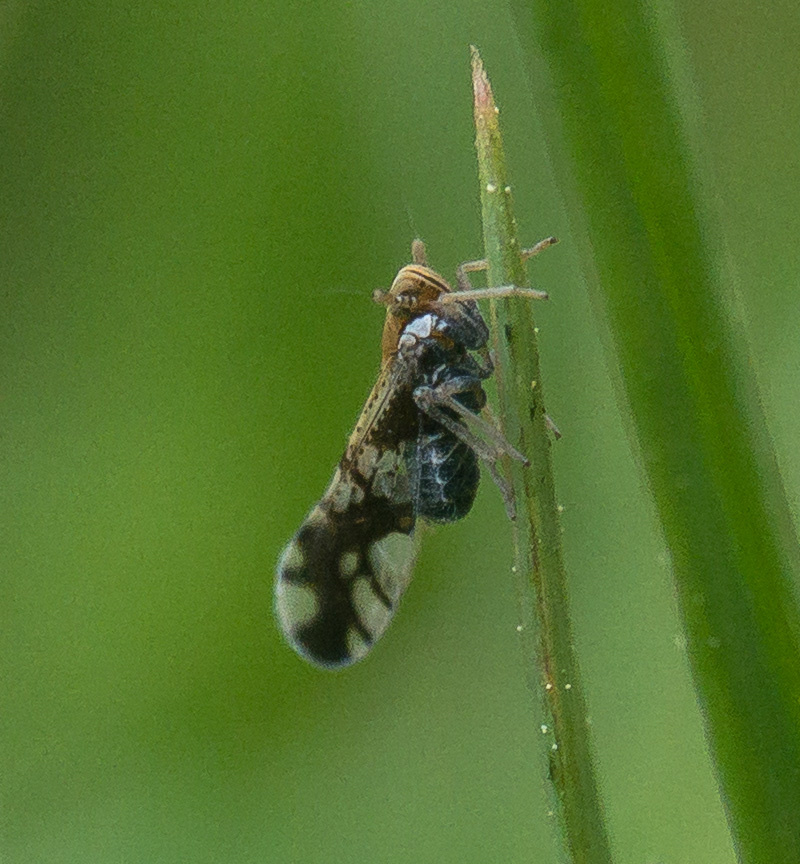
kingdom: Animalia
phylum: Arthropoda
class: Insecta
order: Hemiptera
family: Delphacidae
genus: Liburniella
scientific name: Liburniella ornata
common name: Ornate planthopper
